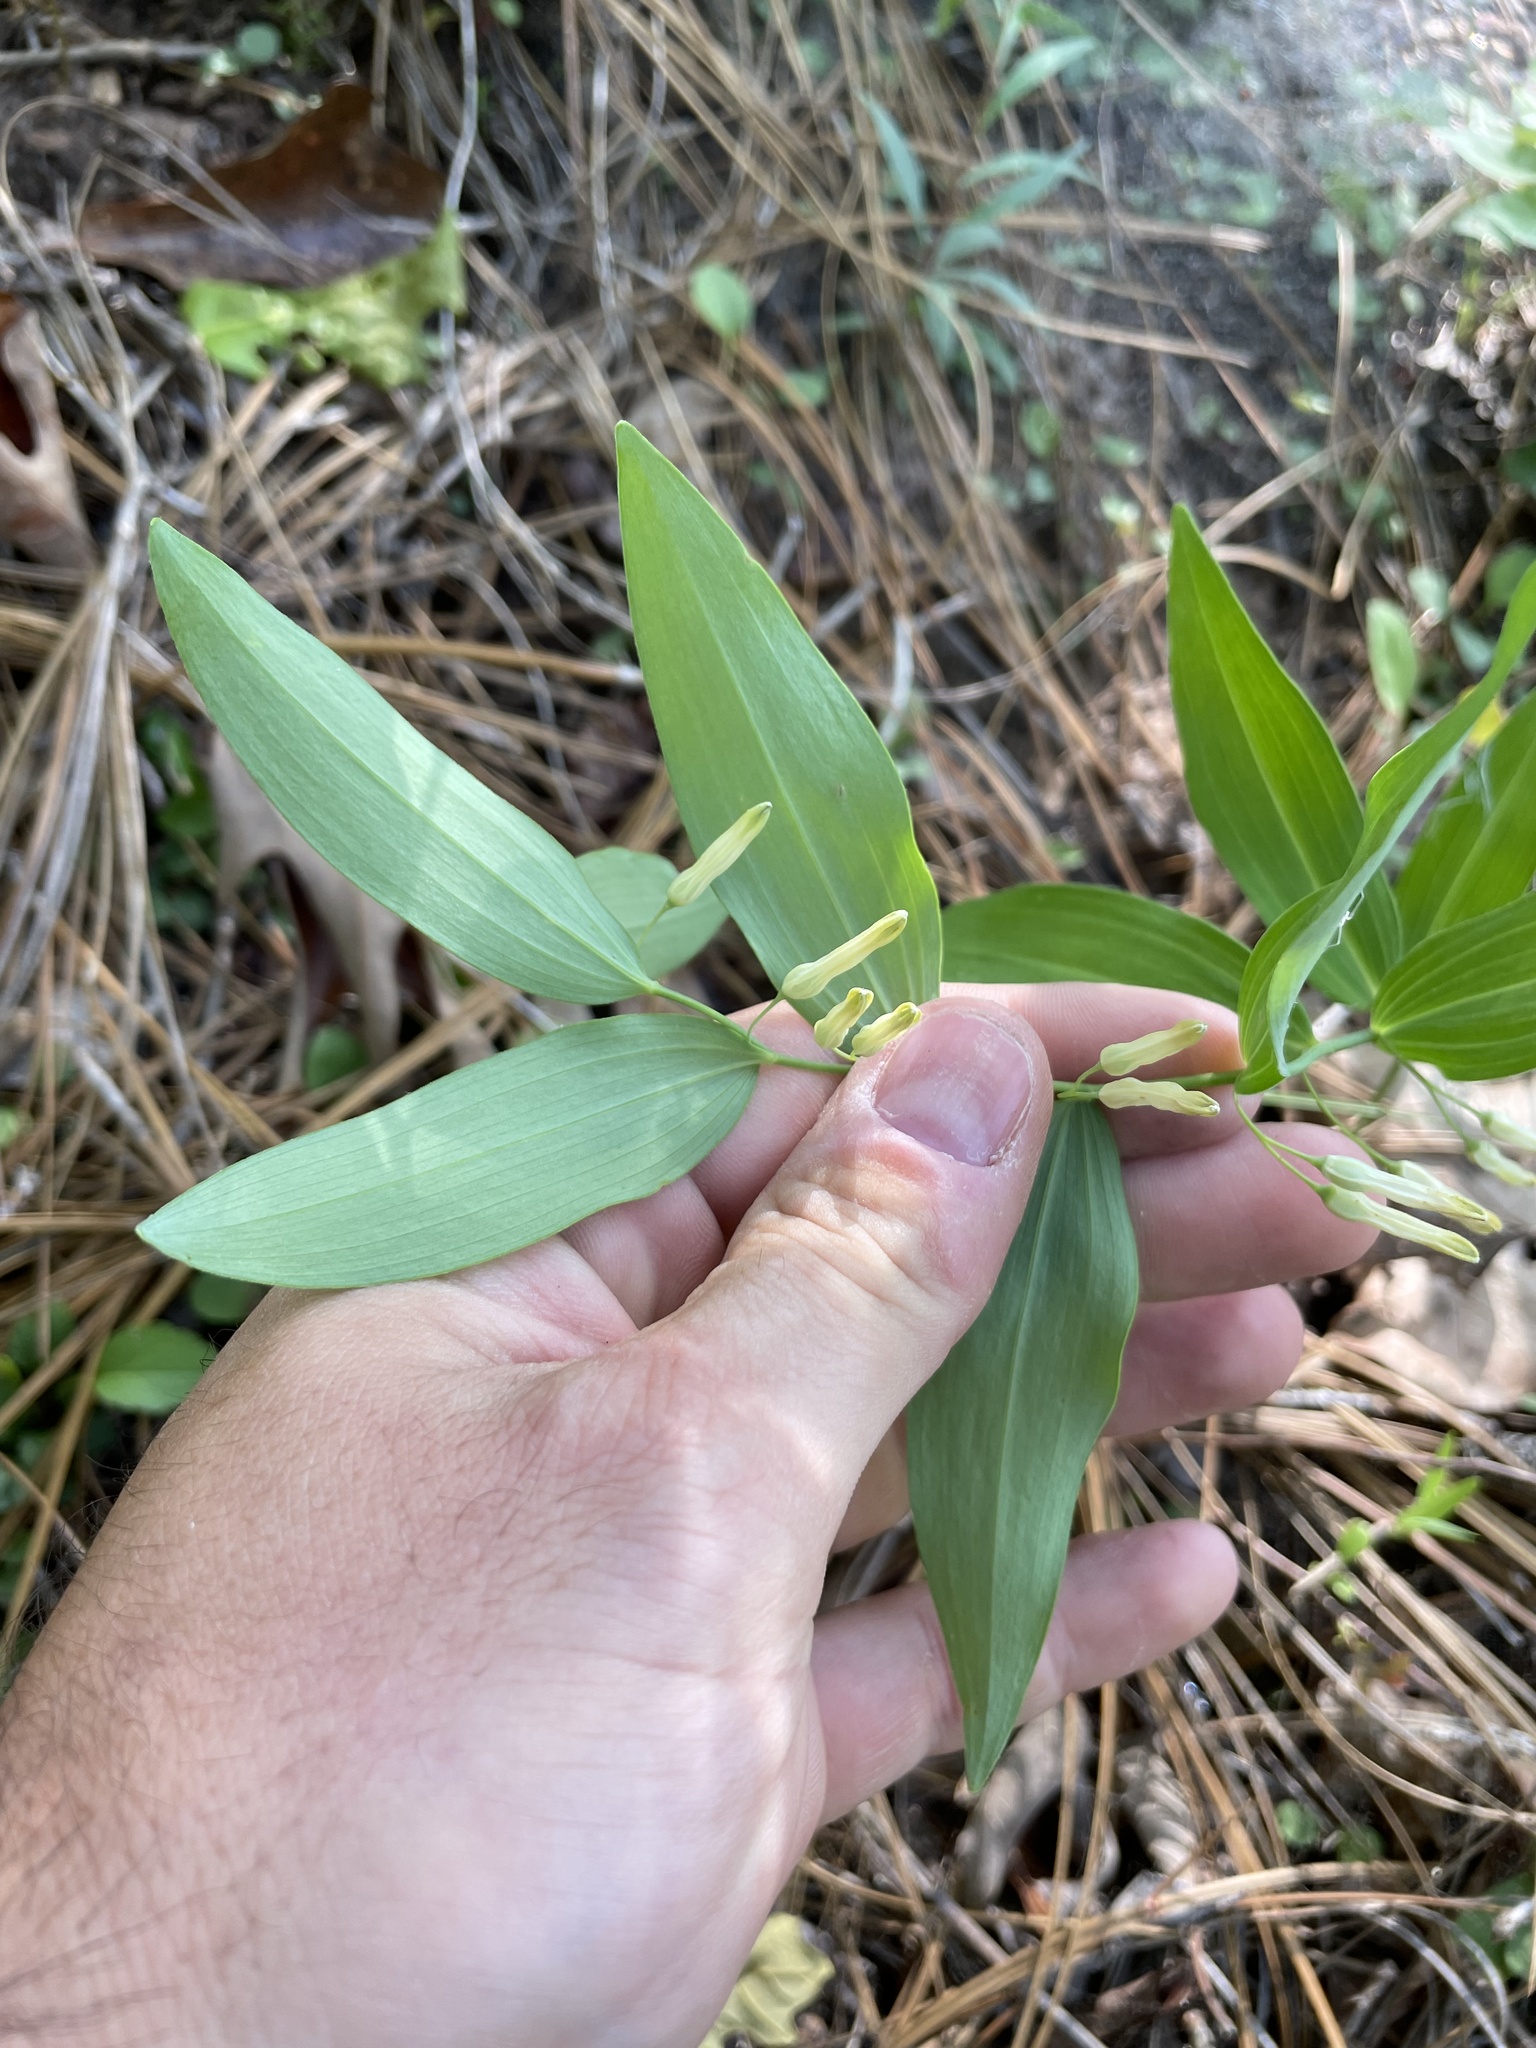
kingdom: Plantae
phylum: Tracheophyta
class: Liliopsida
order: Asparagales
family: Asparagaceae
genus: Polygonatum
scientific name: Polygonatum biflorum
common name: American solomon's-seal
